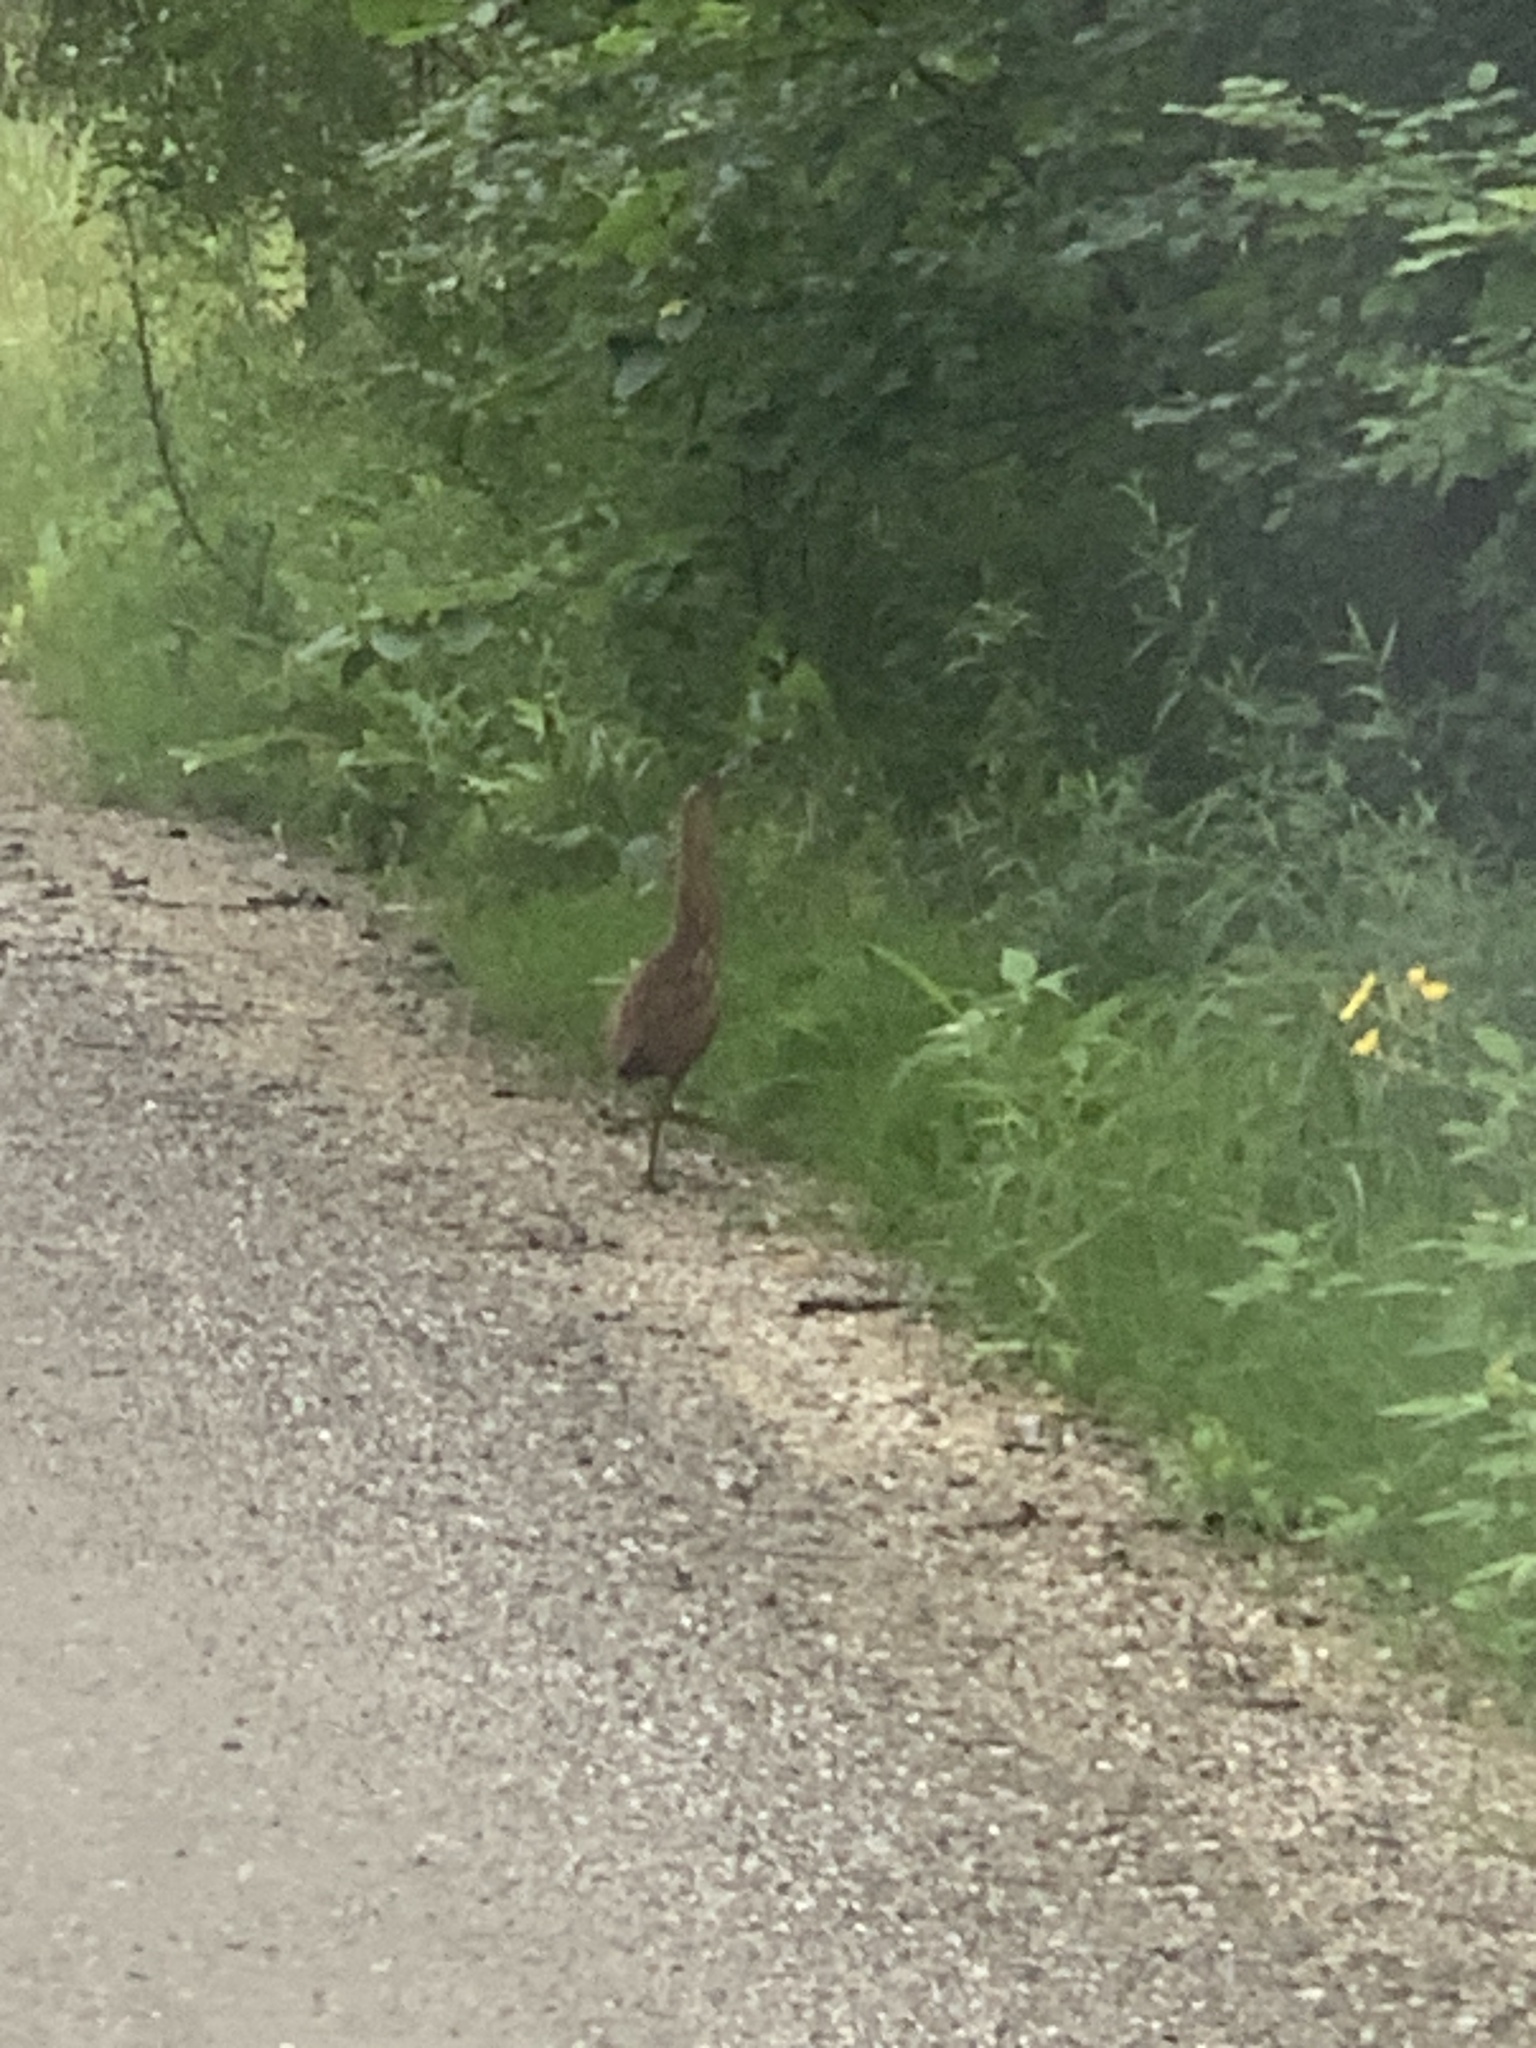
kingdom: Animalia
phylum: Chordata
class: Aves
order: Pelecaniformes
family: Ardeidae
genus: Botaurus
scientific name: Botaurus lentiginosus
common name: American bittern
